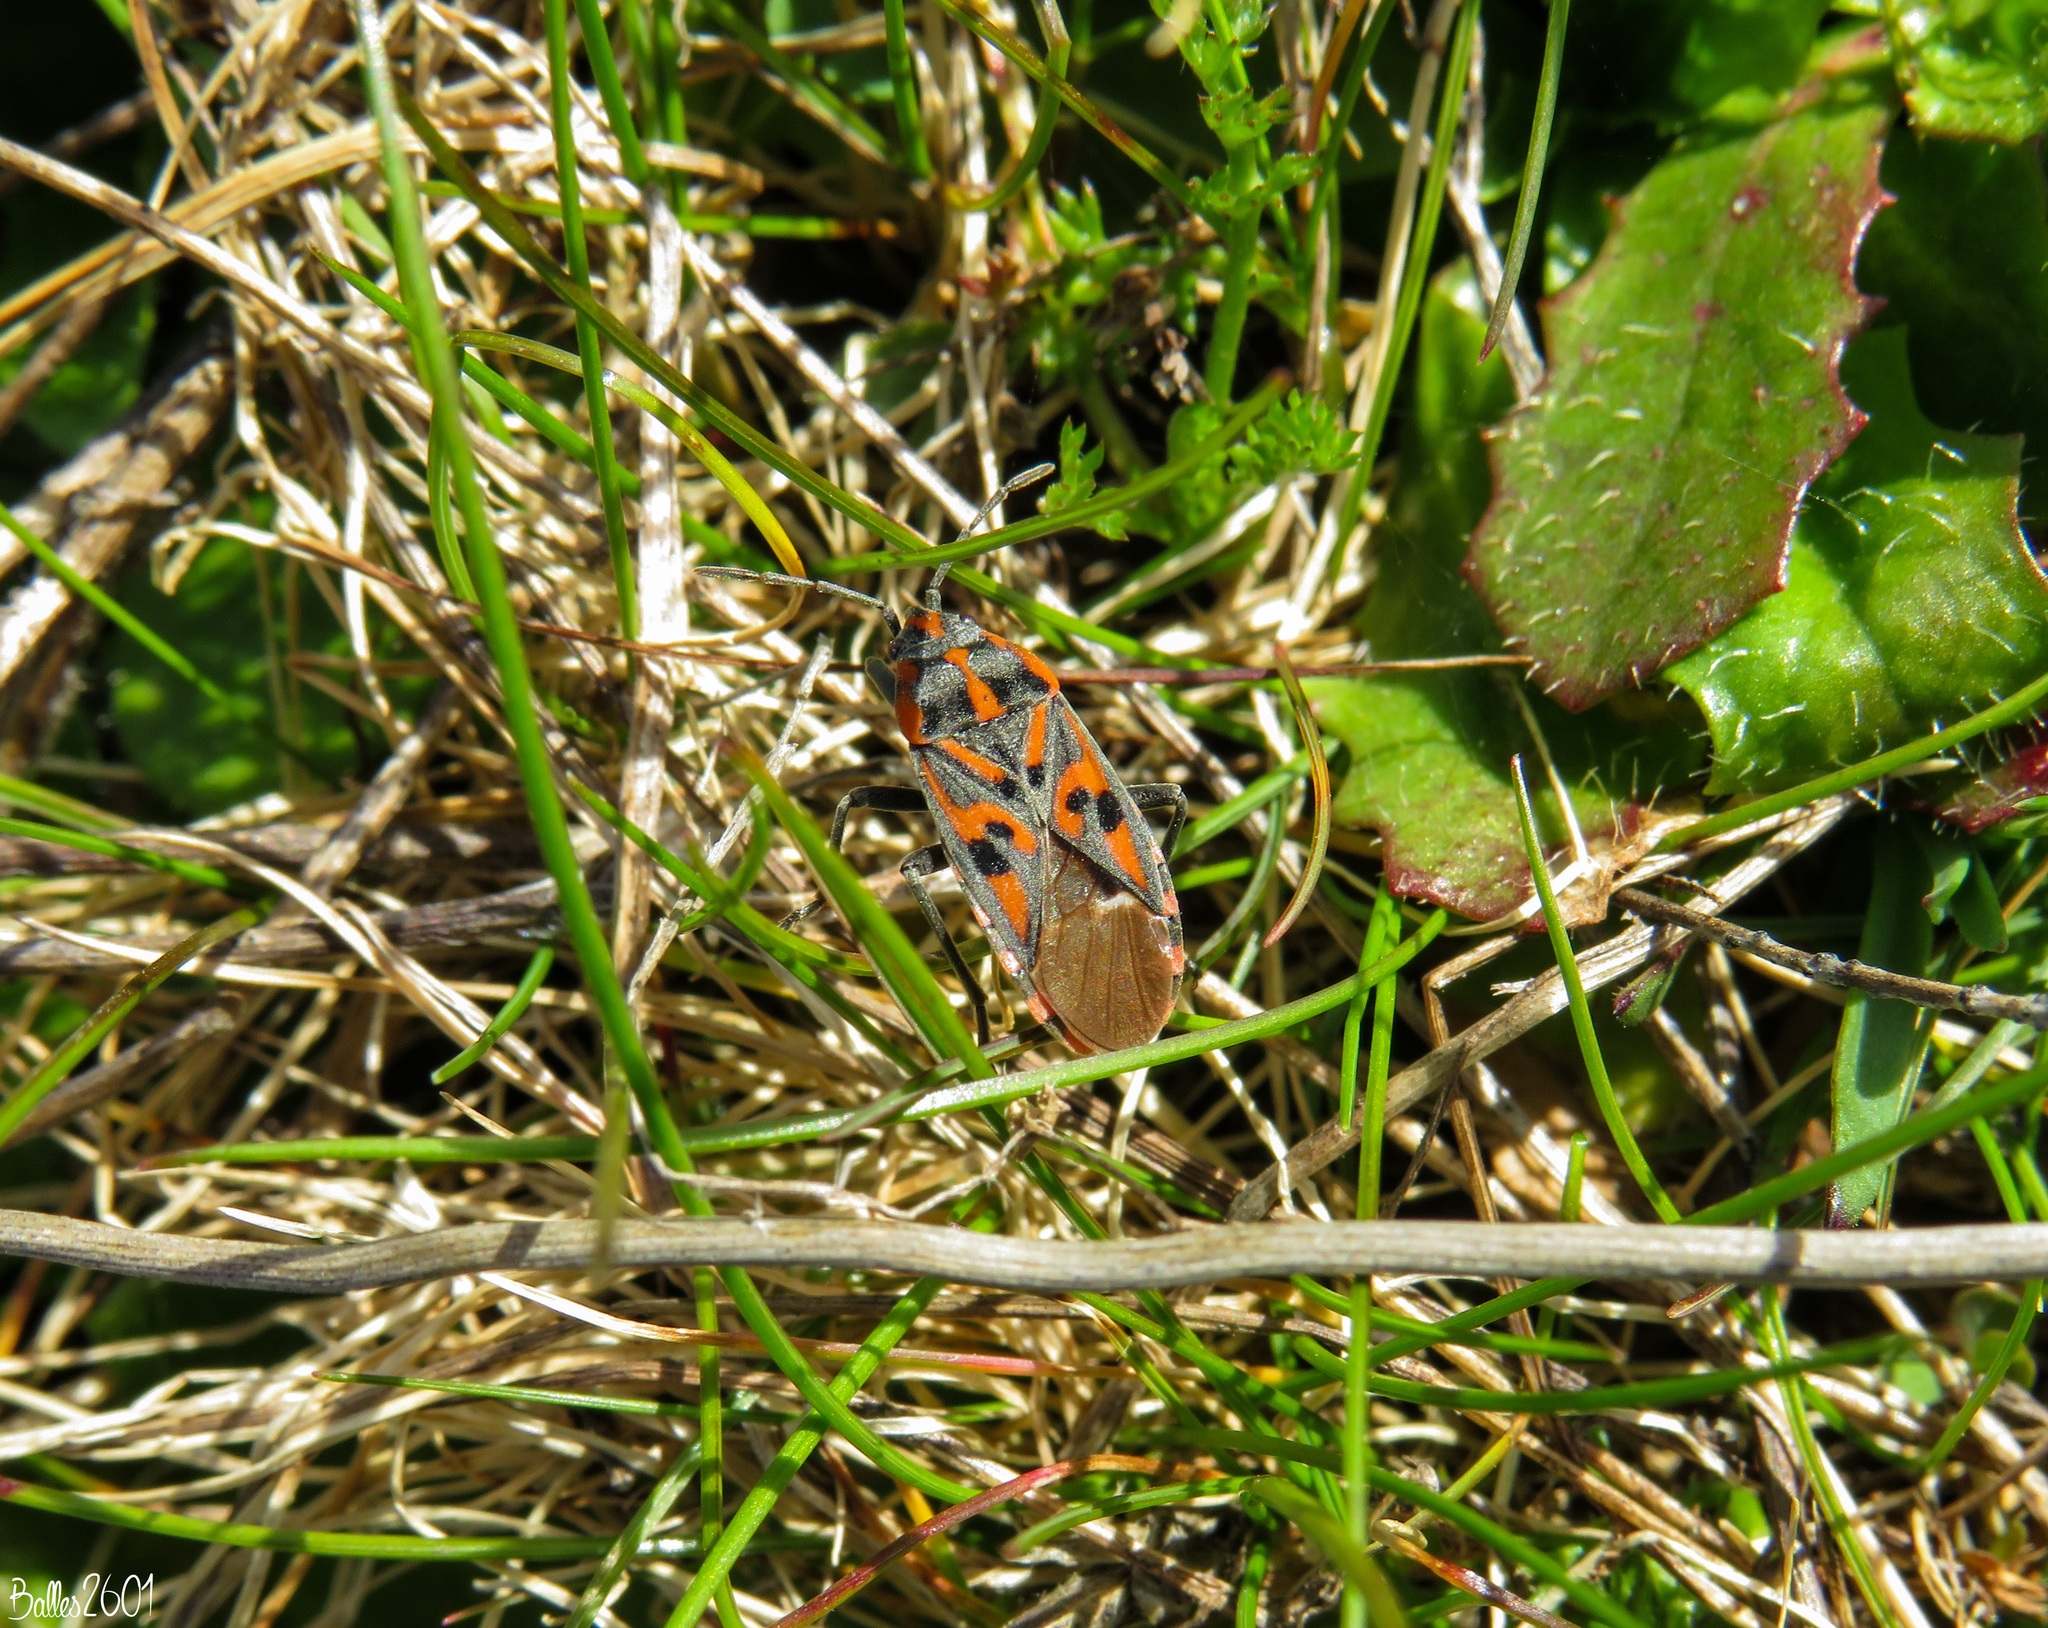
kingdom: Animalia
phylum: Arthropoda
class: Insecta
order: Hemiptera
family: Lygaeidae
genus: Spilostethus
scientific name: Spilostethus saxatilis
